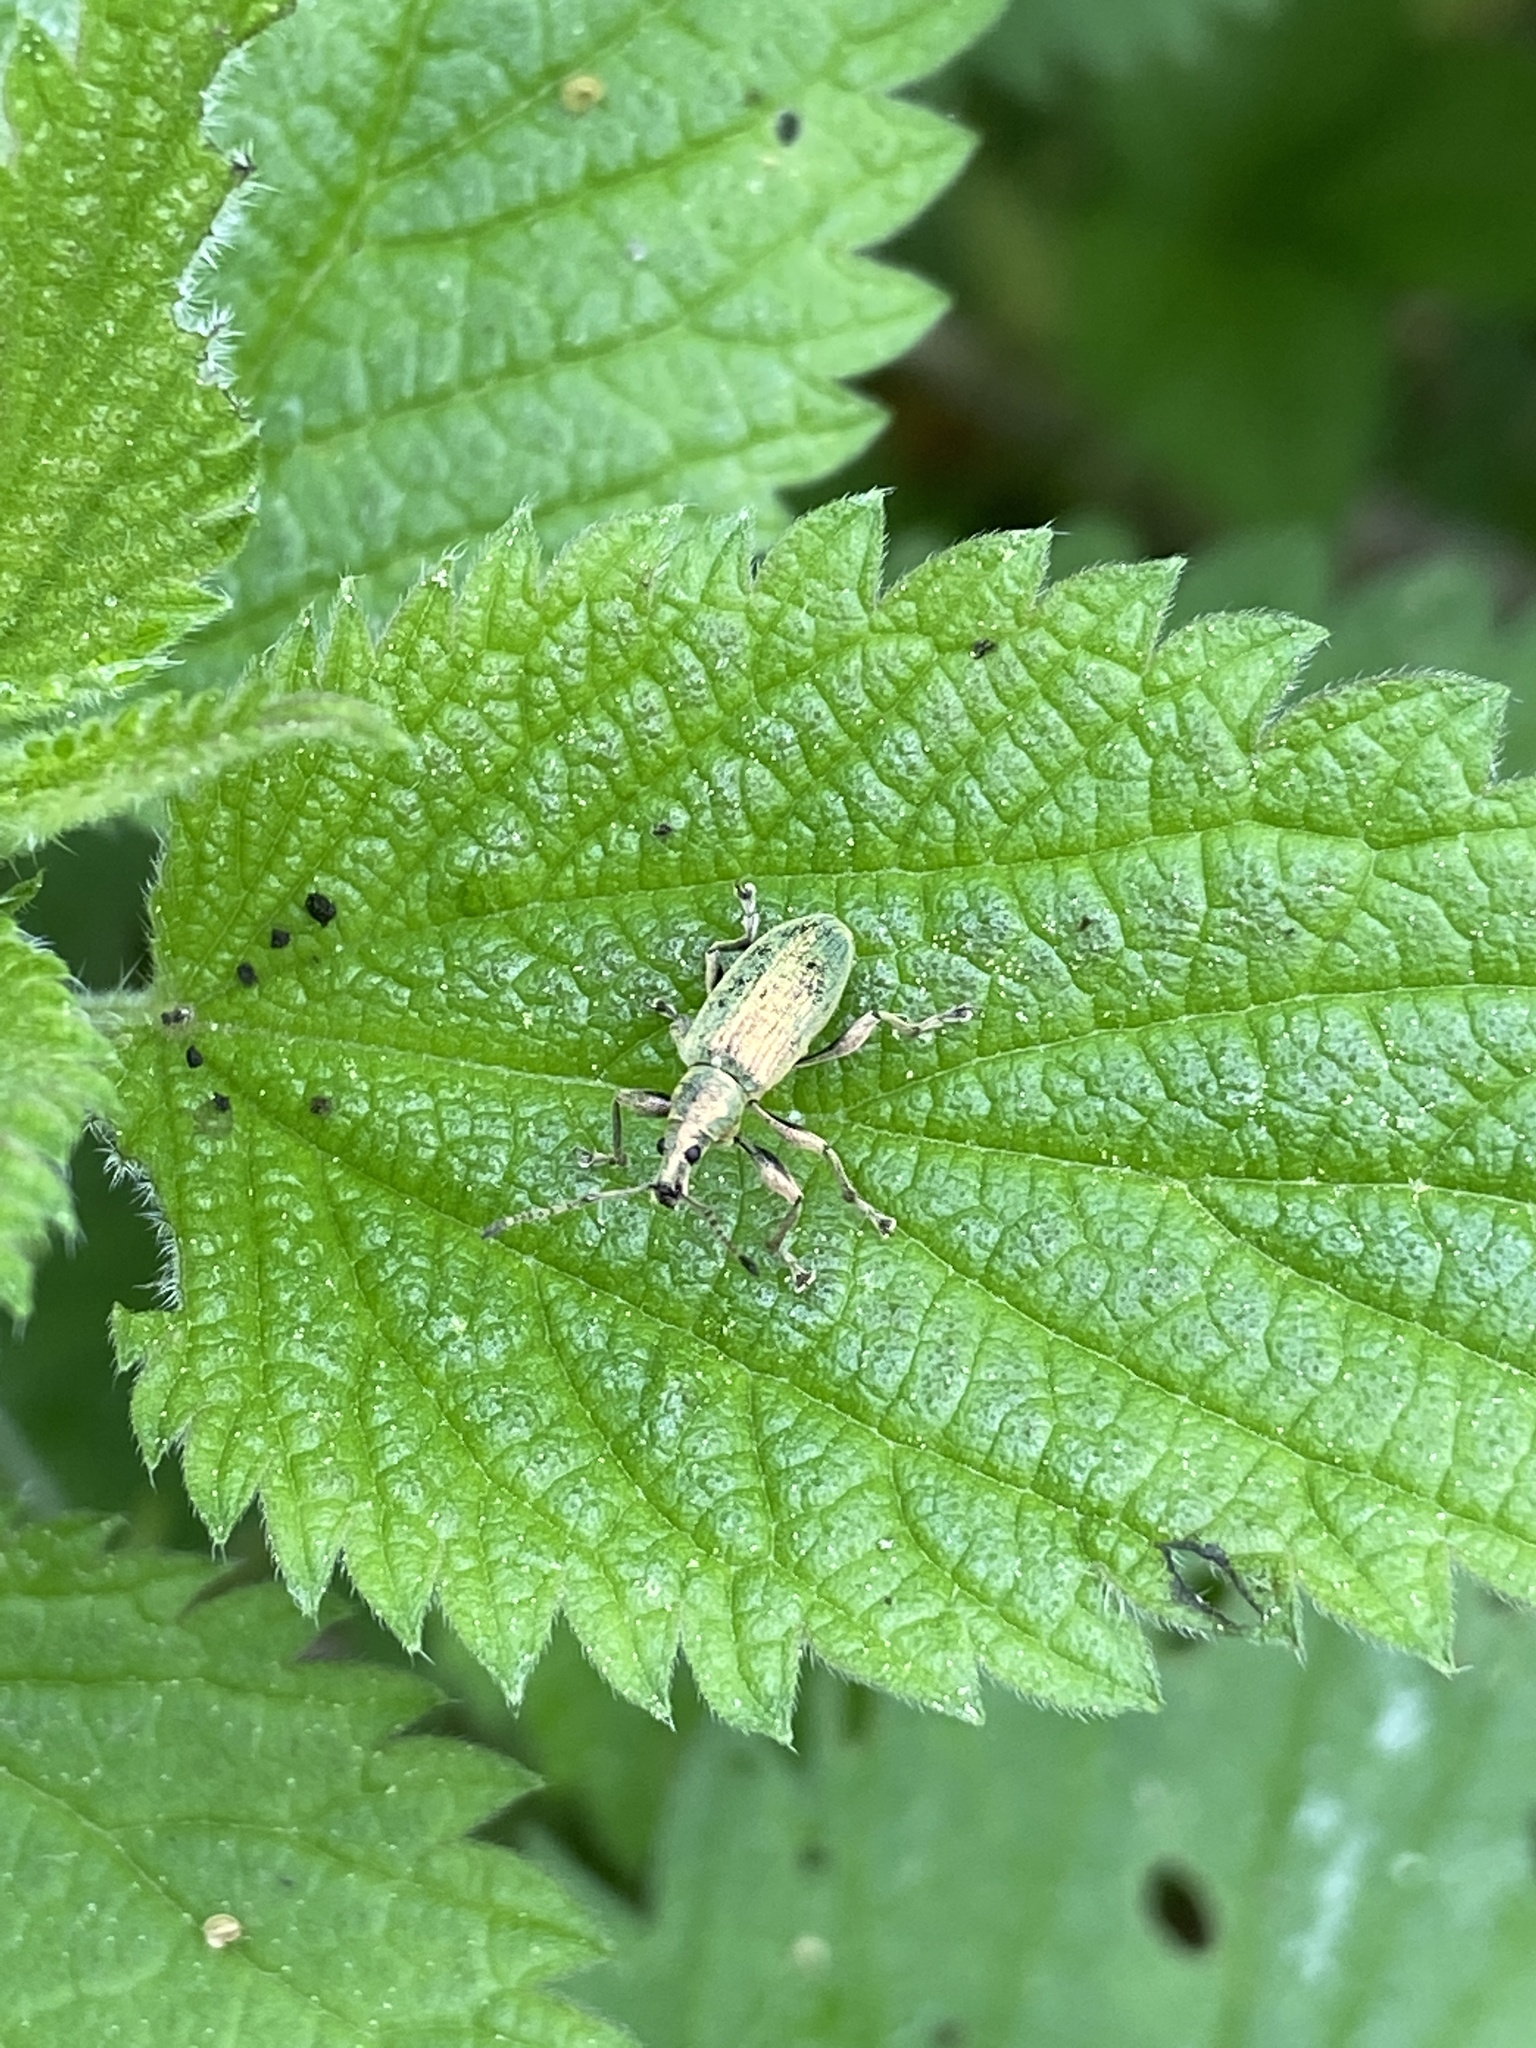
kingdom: Animalia
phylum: Arthropoda
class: Insecta
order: Coleoptera
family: Curculionidae
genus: Phyllobius
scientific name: Phyllobius pomaceus
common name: Green nettle weevil
